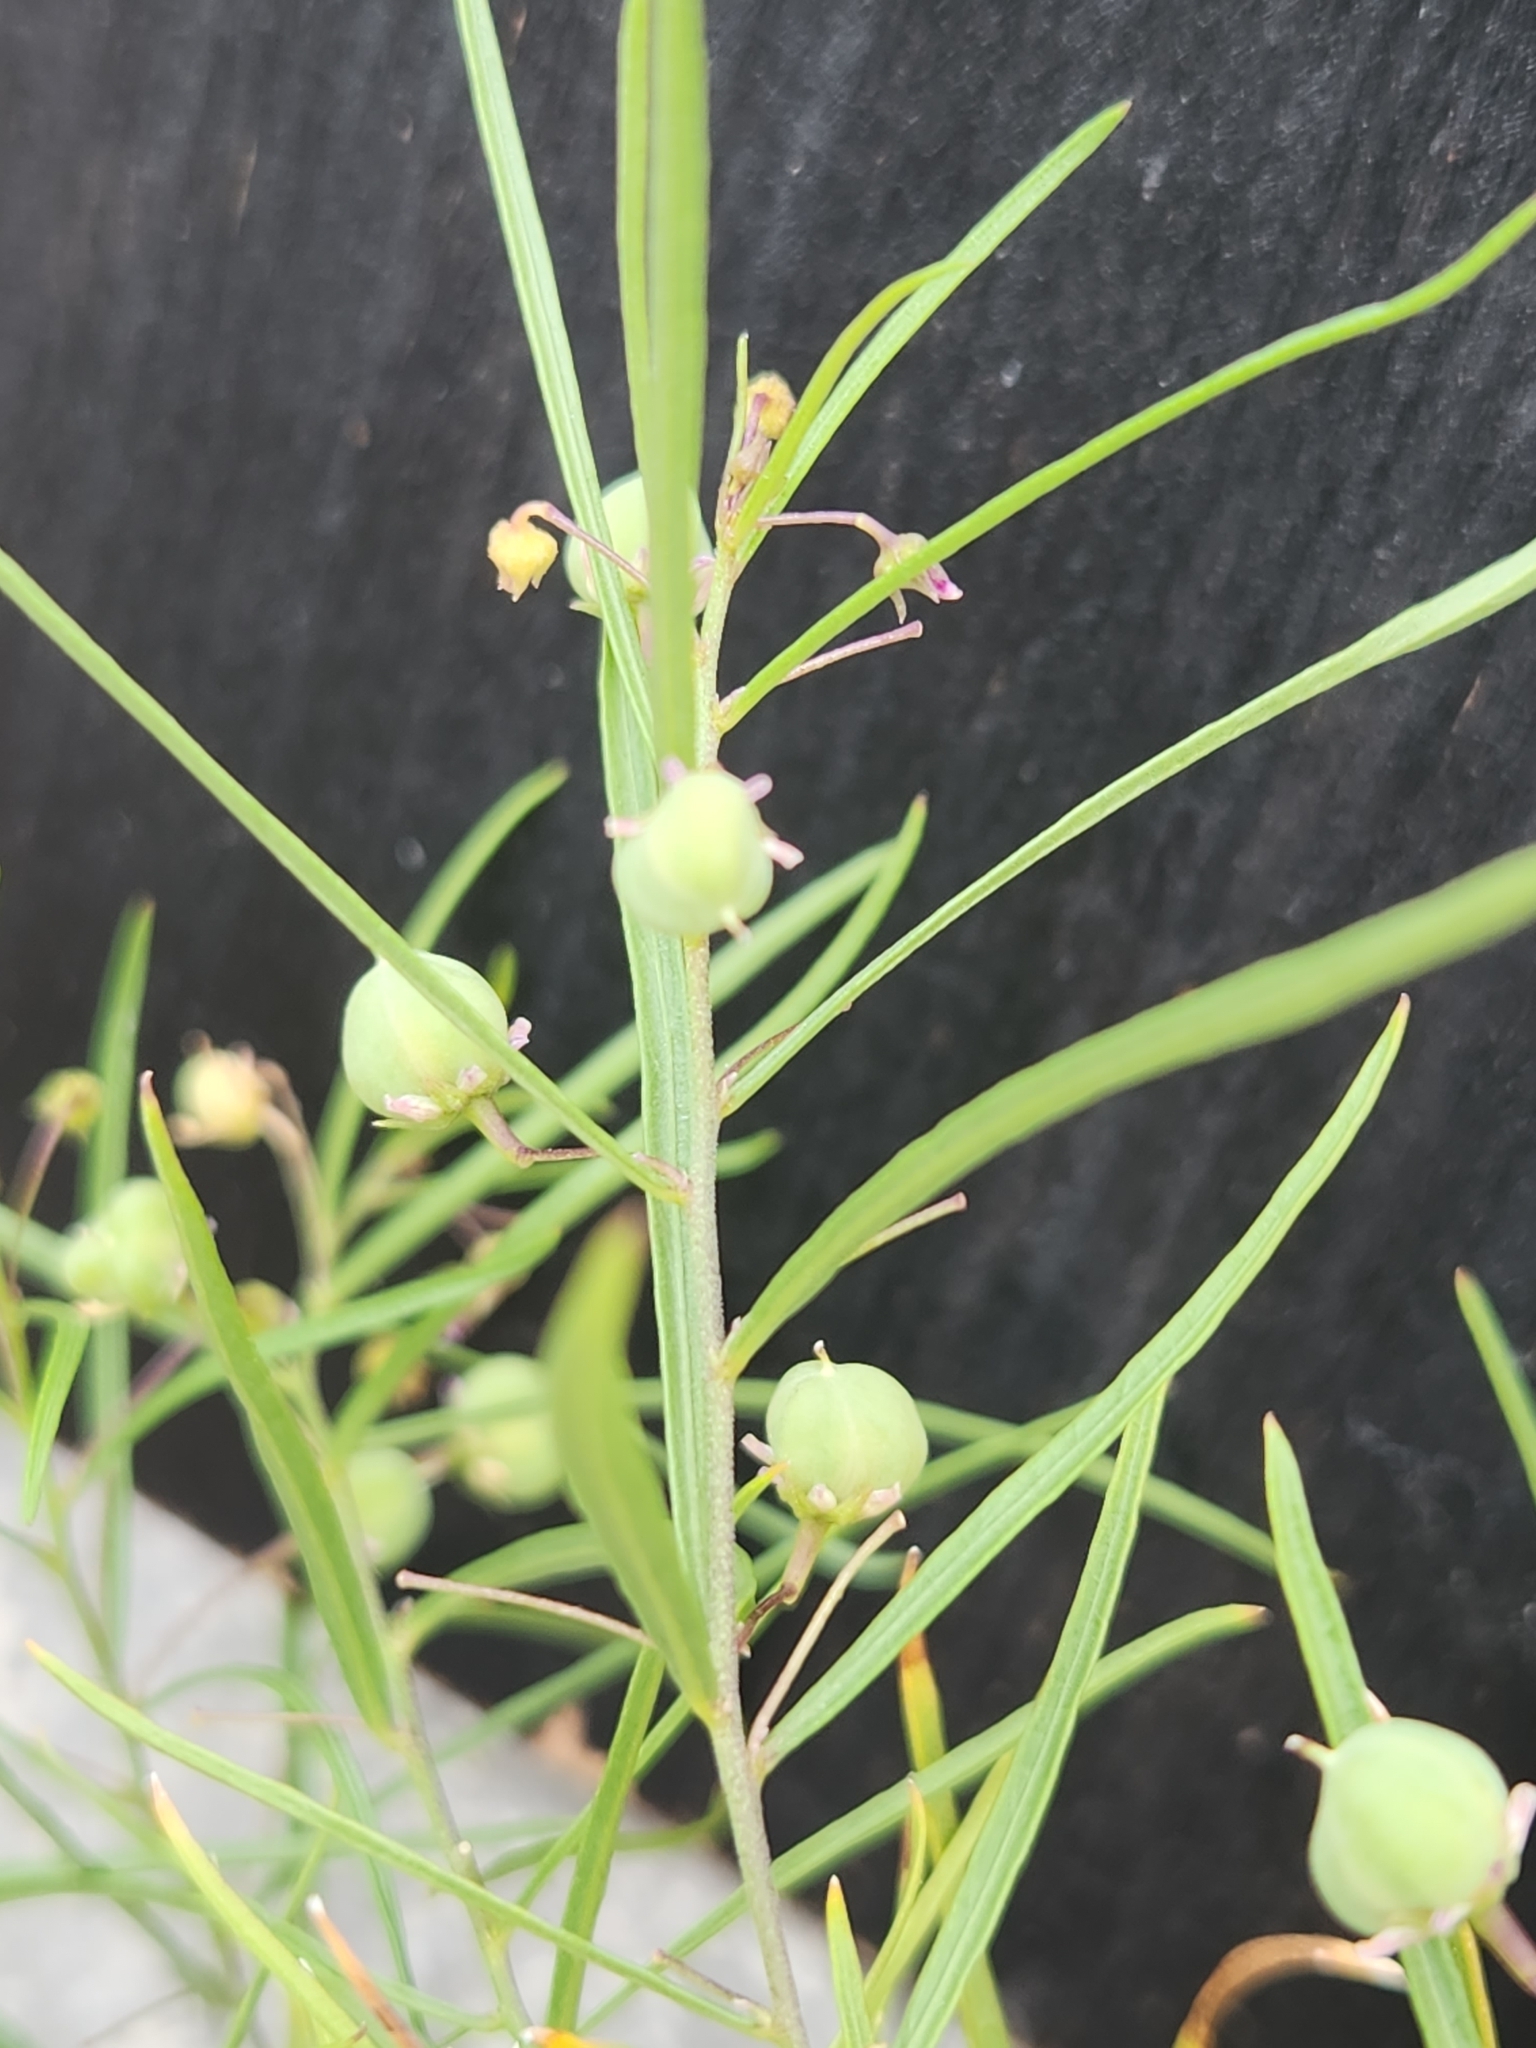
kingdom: Plantae
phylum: Tracheophyta
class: Magnoliopsida
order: Malpighiales
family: Violaceae
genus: Pombalia
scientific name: Pombalia verticillata
